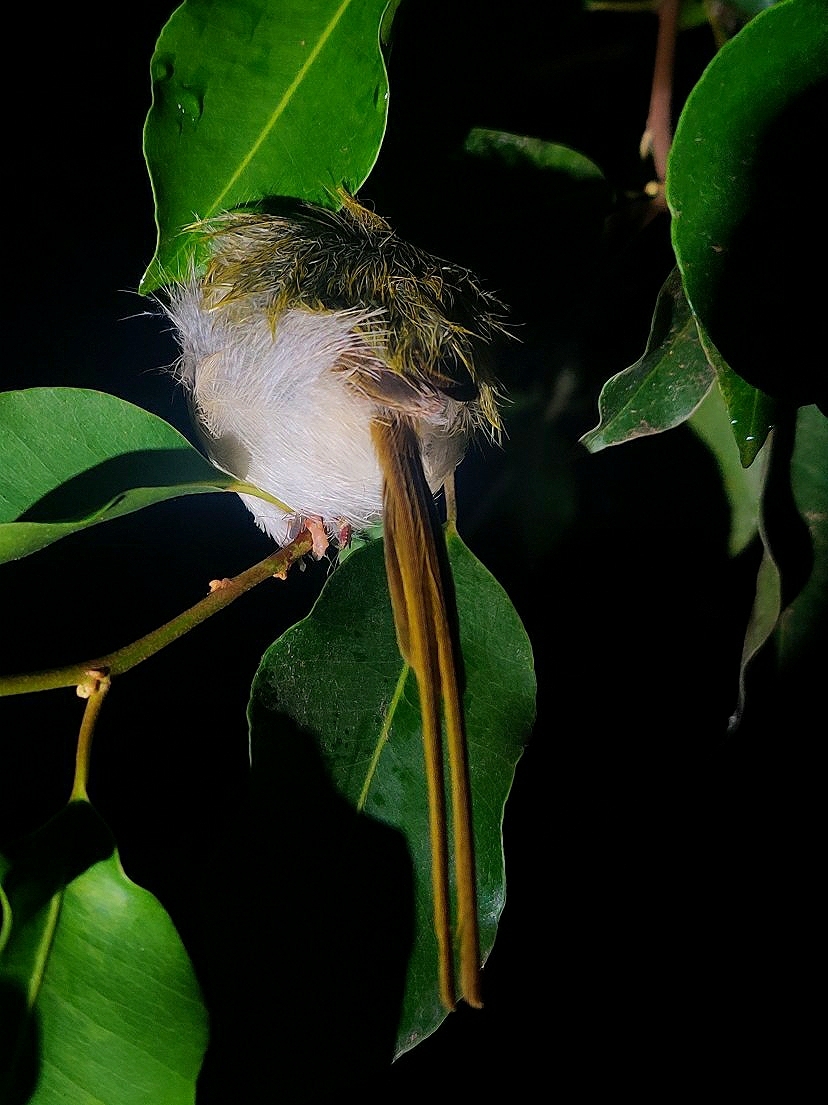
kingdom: Animalia
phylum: Chordata
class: Aves
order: Passeriformes
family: Cisticolidae
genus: Orthotomus
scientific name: Orthotomus sutorius
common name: Common tailorbird
